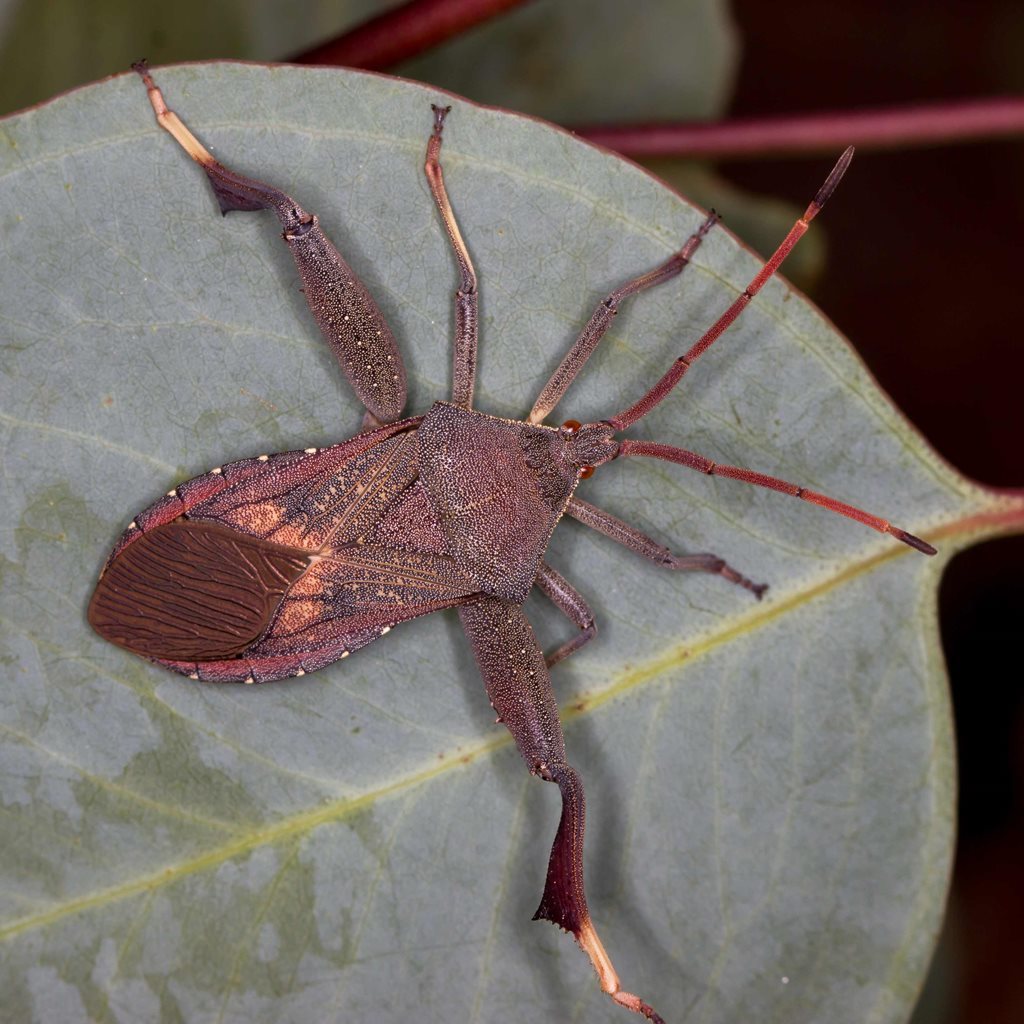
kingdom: Animalia
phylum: Arthropoda
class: Insecta
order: Hemiptera
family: Coreidae
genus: Amorbus
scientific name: Amorbus robustus
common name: Common gum-tree bug
